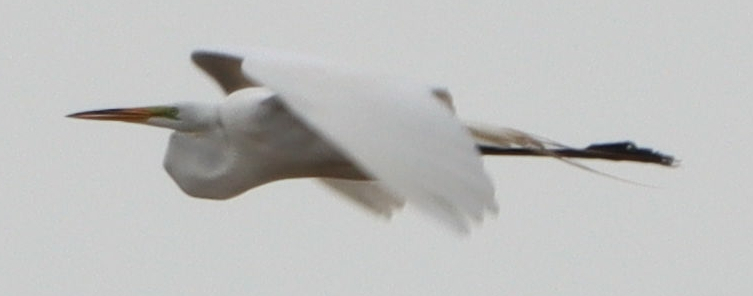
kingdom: Animalia
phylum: Chordata
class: Aves
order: Pelecaniformes
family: Ardeidae
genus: Ardea
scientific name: Ardea alba
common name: Great egret
